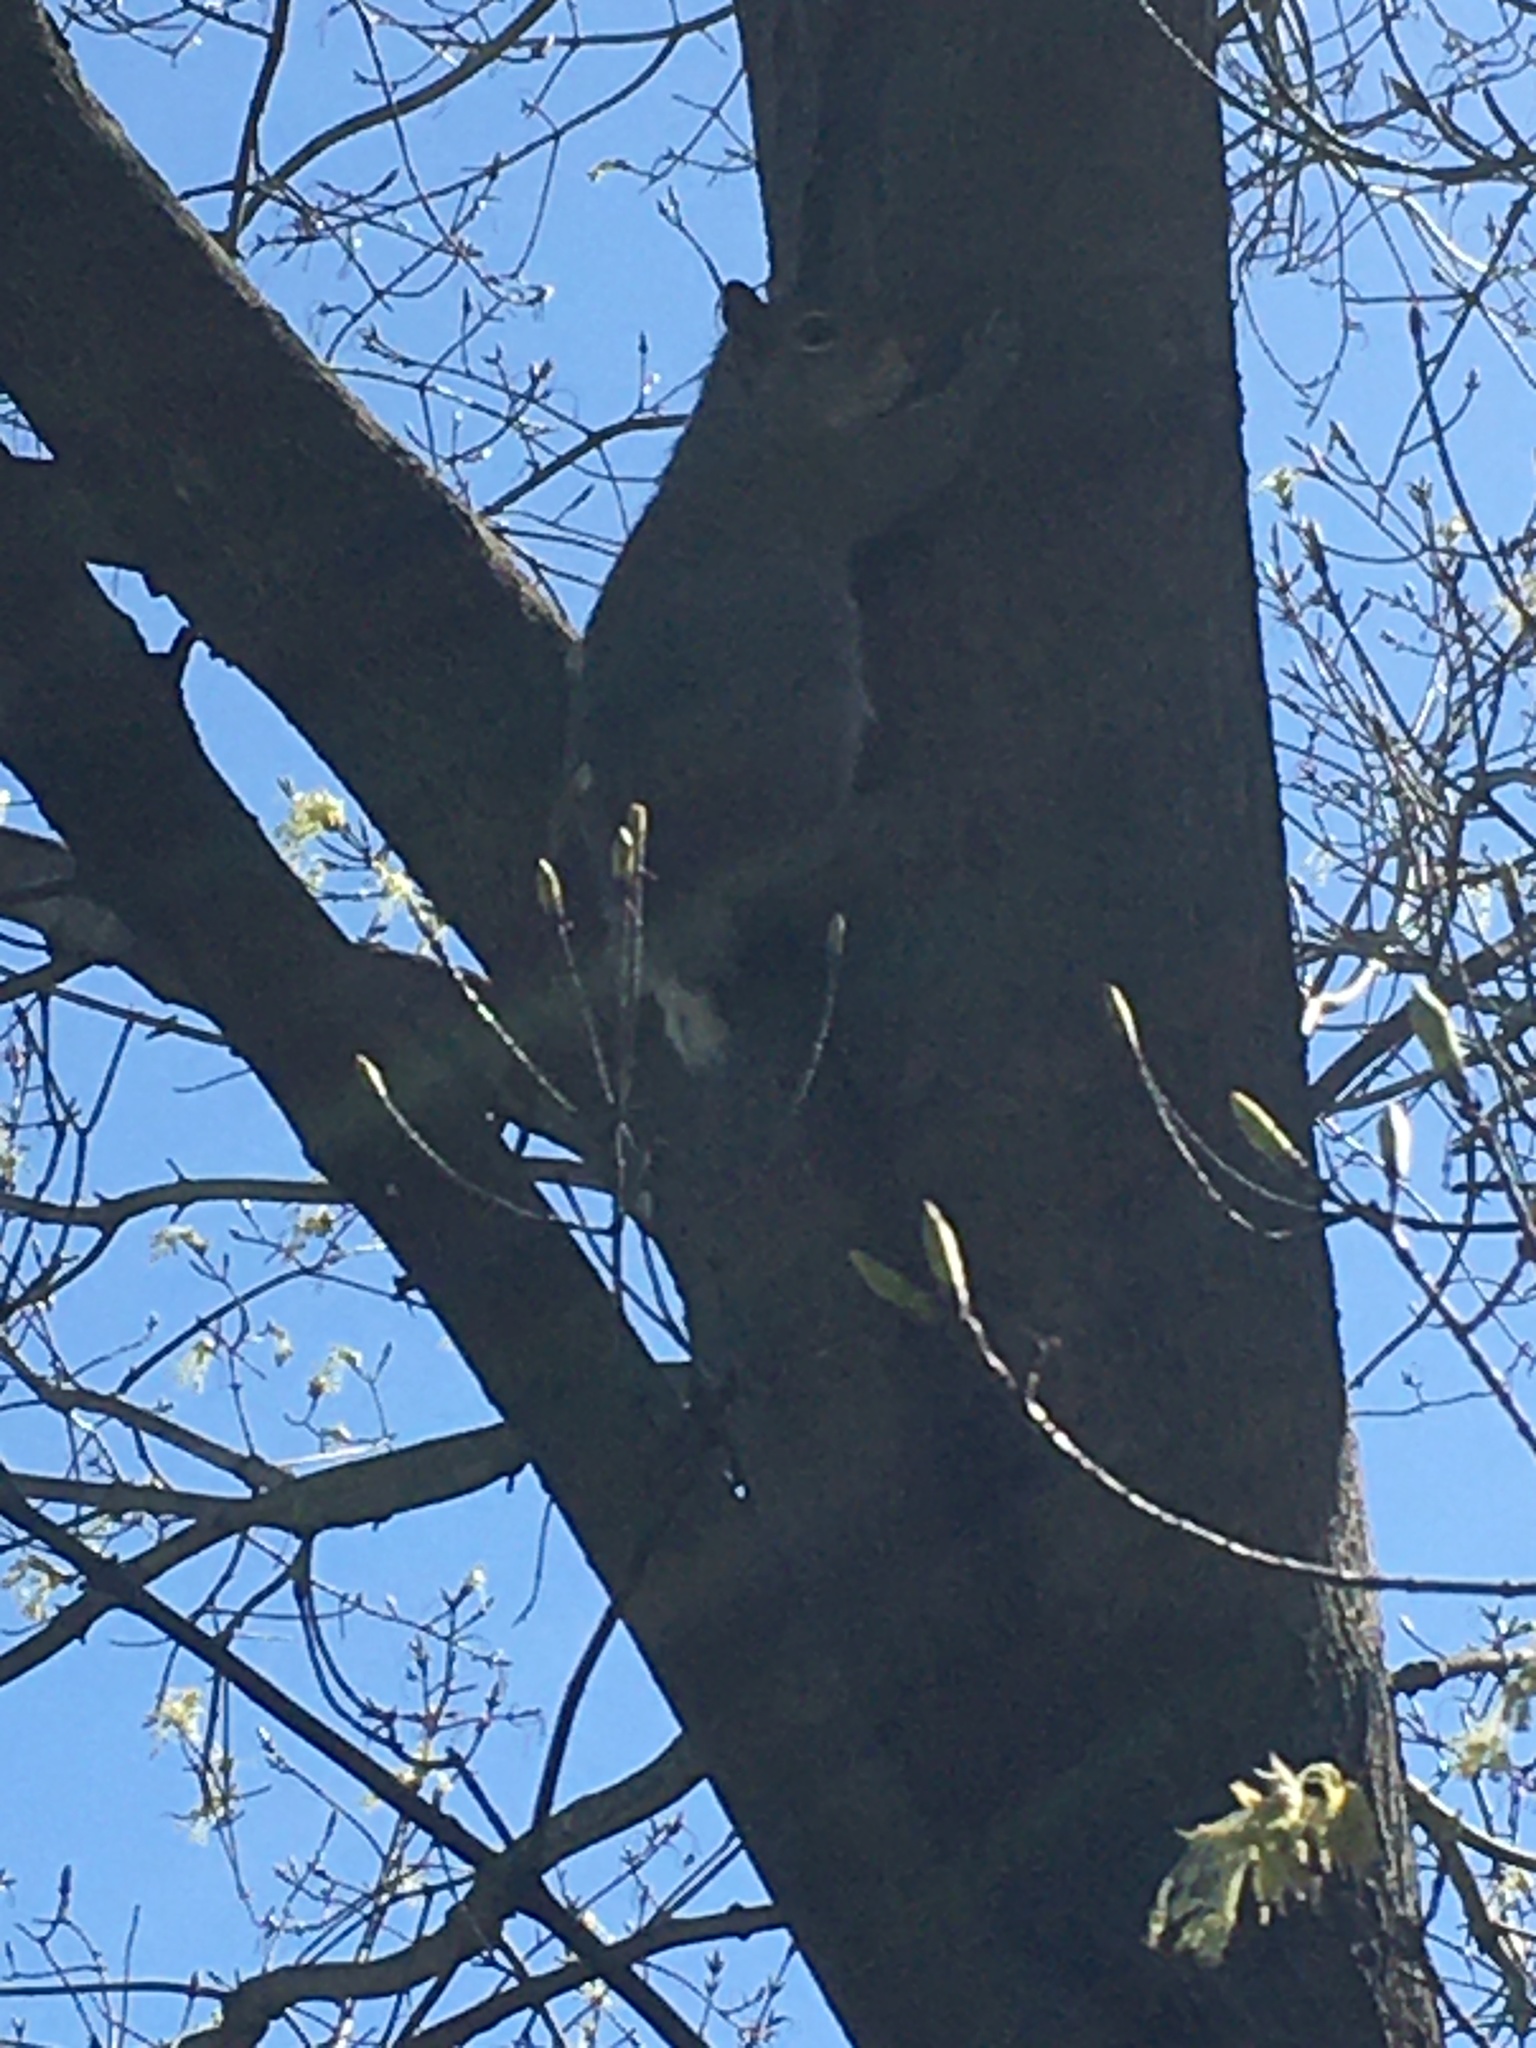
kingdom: Animalia
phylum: Chordata
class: Mammalia
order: Rodentia
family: Sciuridae
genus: Sciurus
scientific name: Sciurus carolinensis
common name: Eastern gray squirrel
